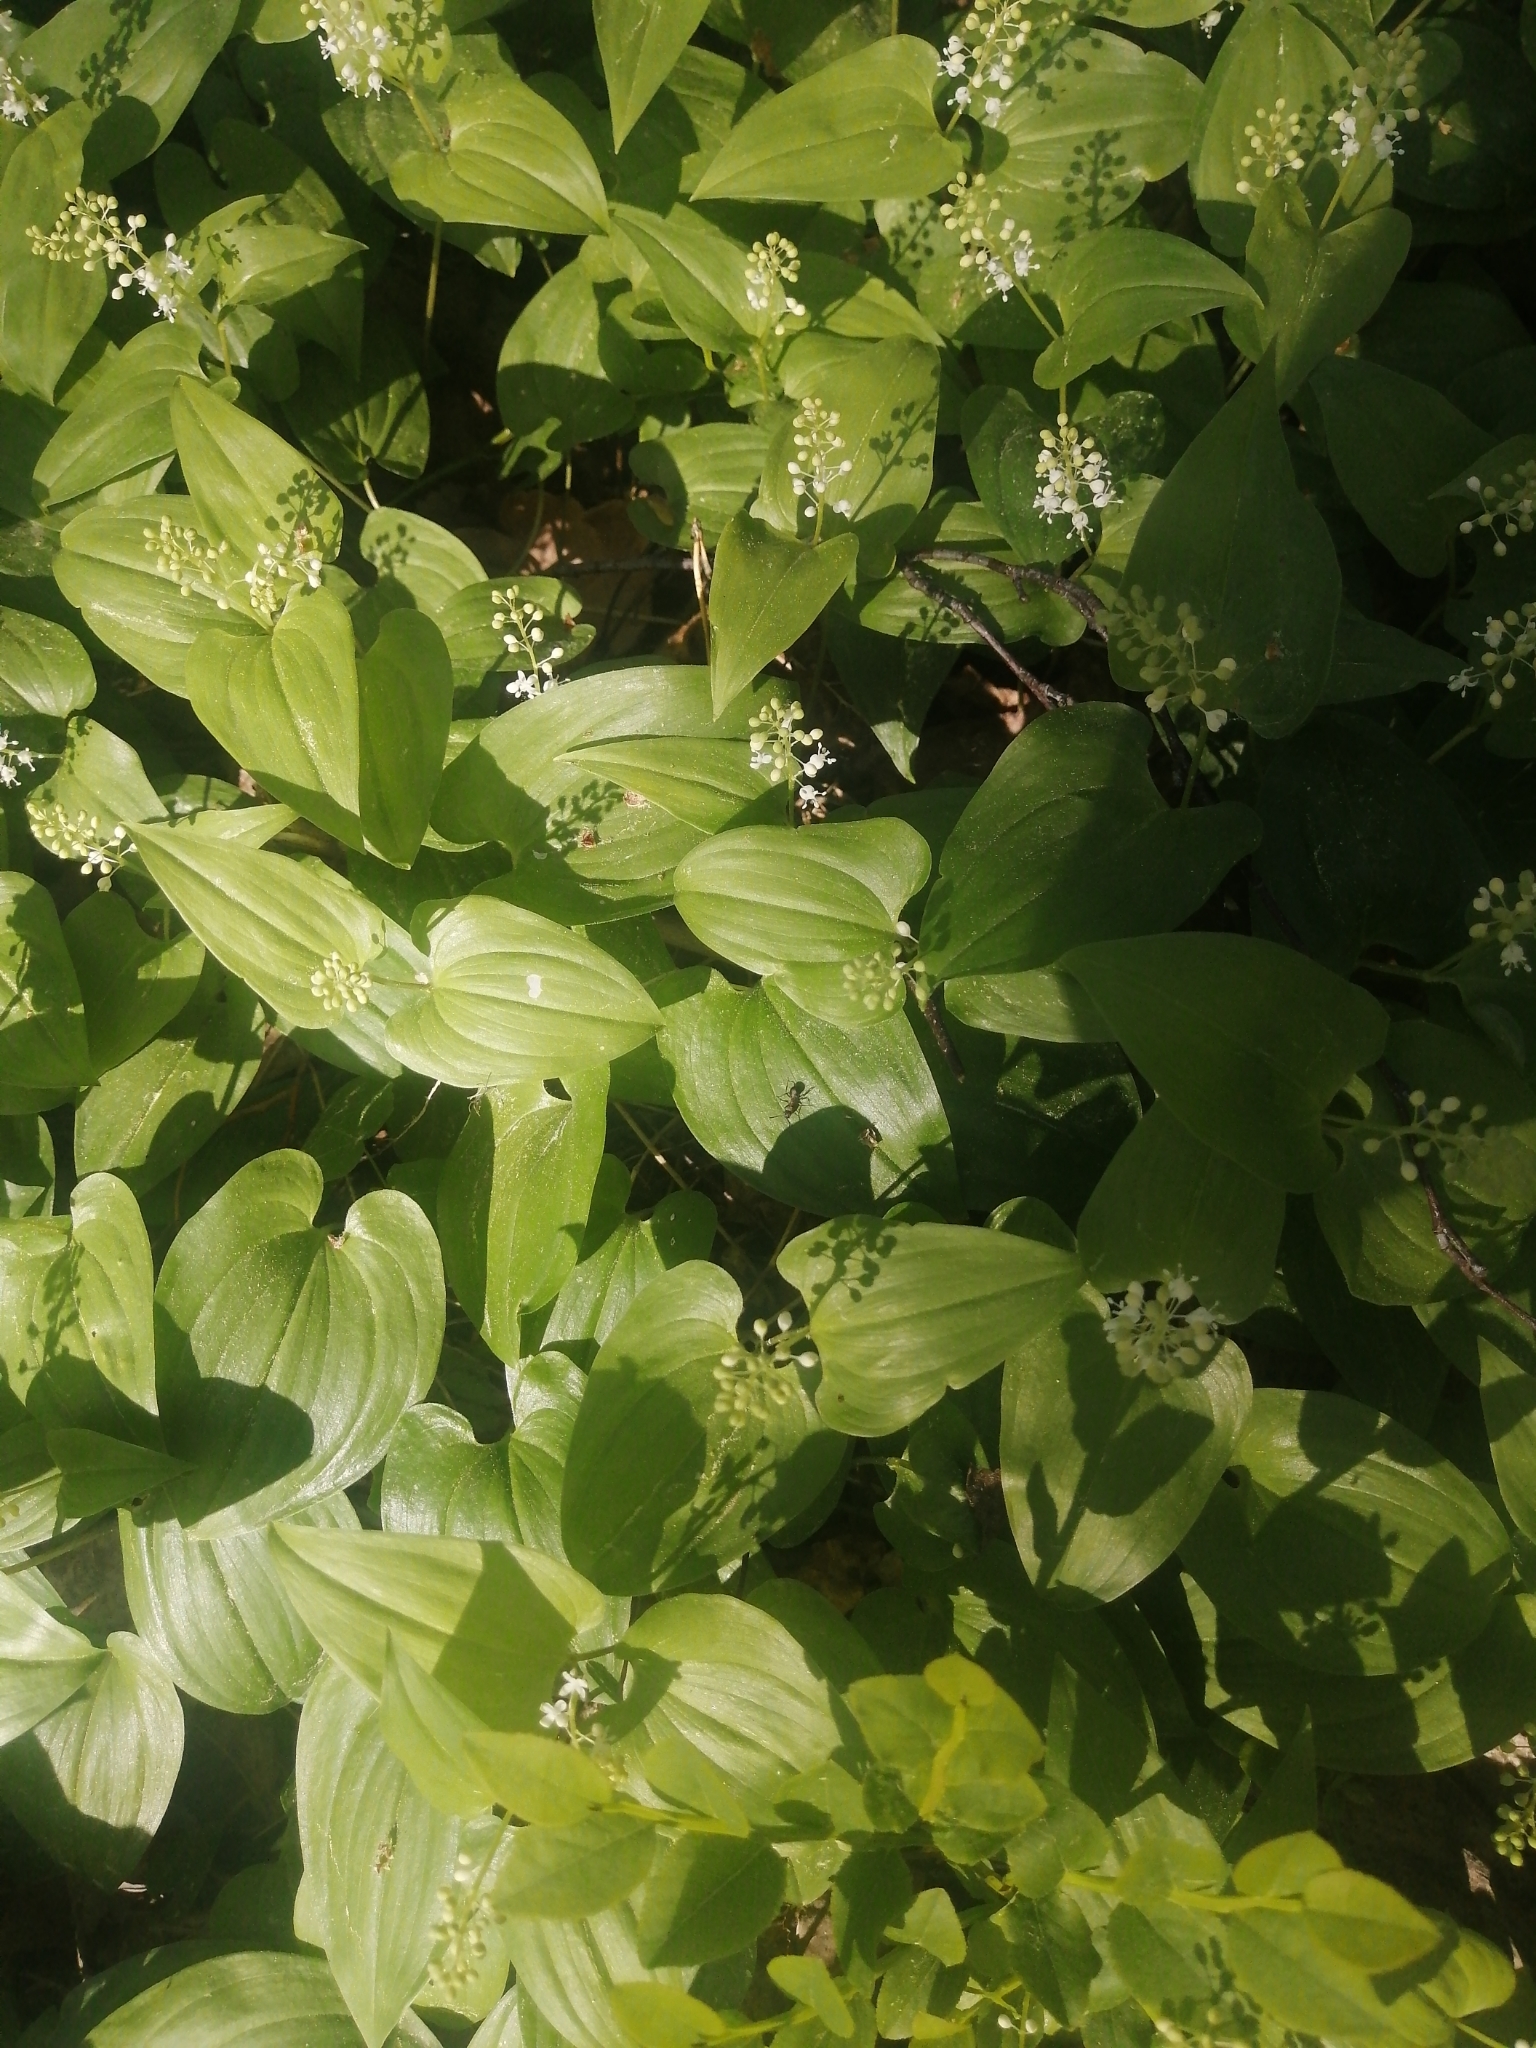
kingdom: Plantae
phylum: Tracheophyta
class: Liliopsida
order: Asparagales
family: Asparagaceae
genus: Maianthemum
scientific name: Maianthemum bifolium
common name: May lily
